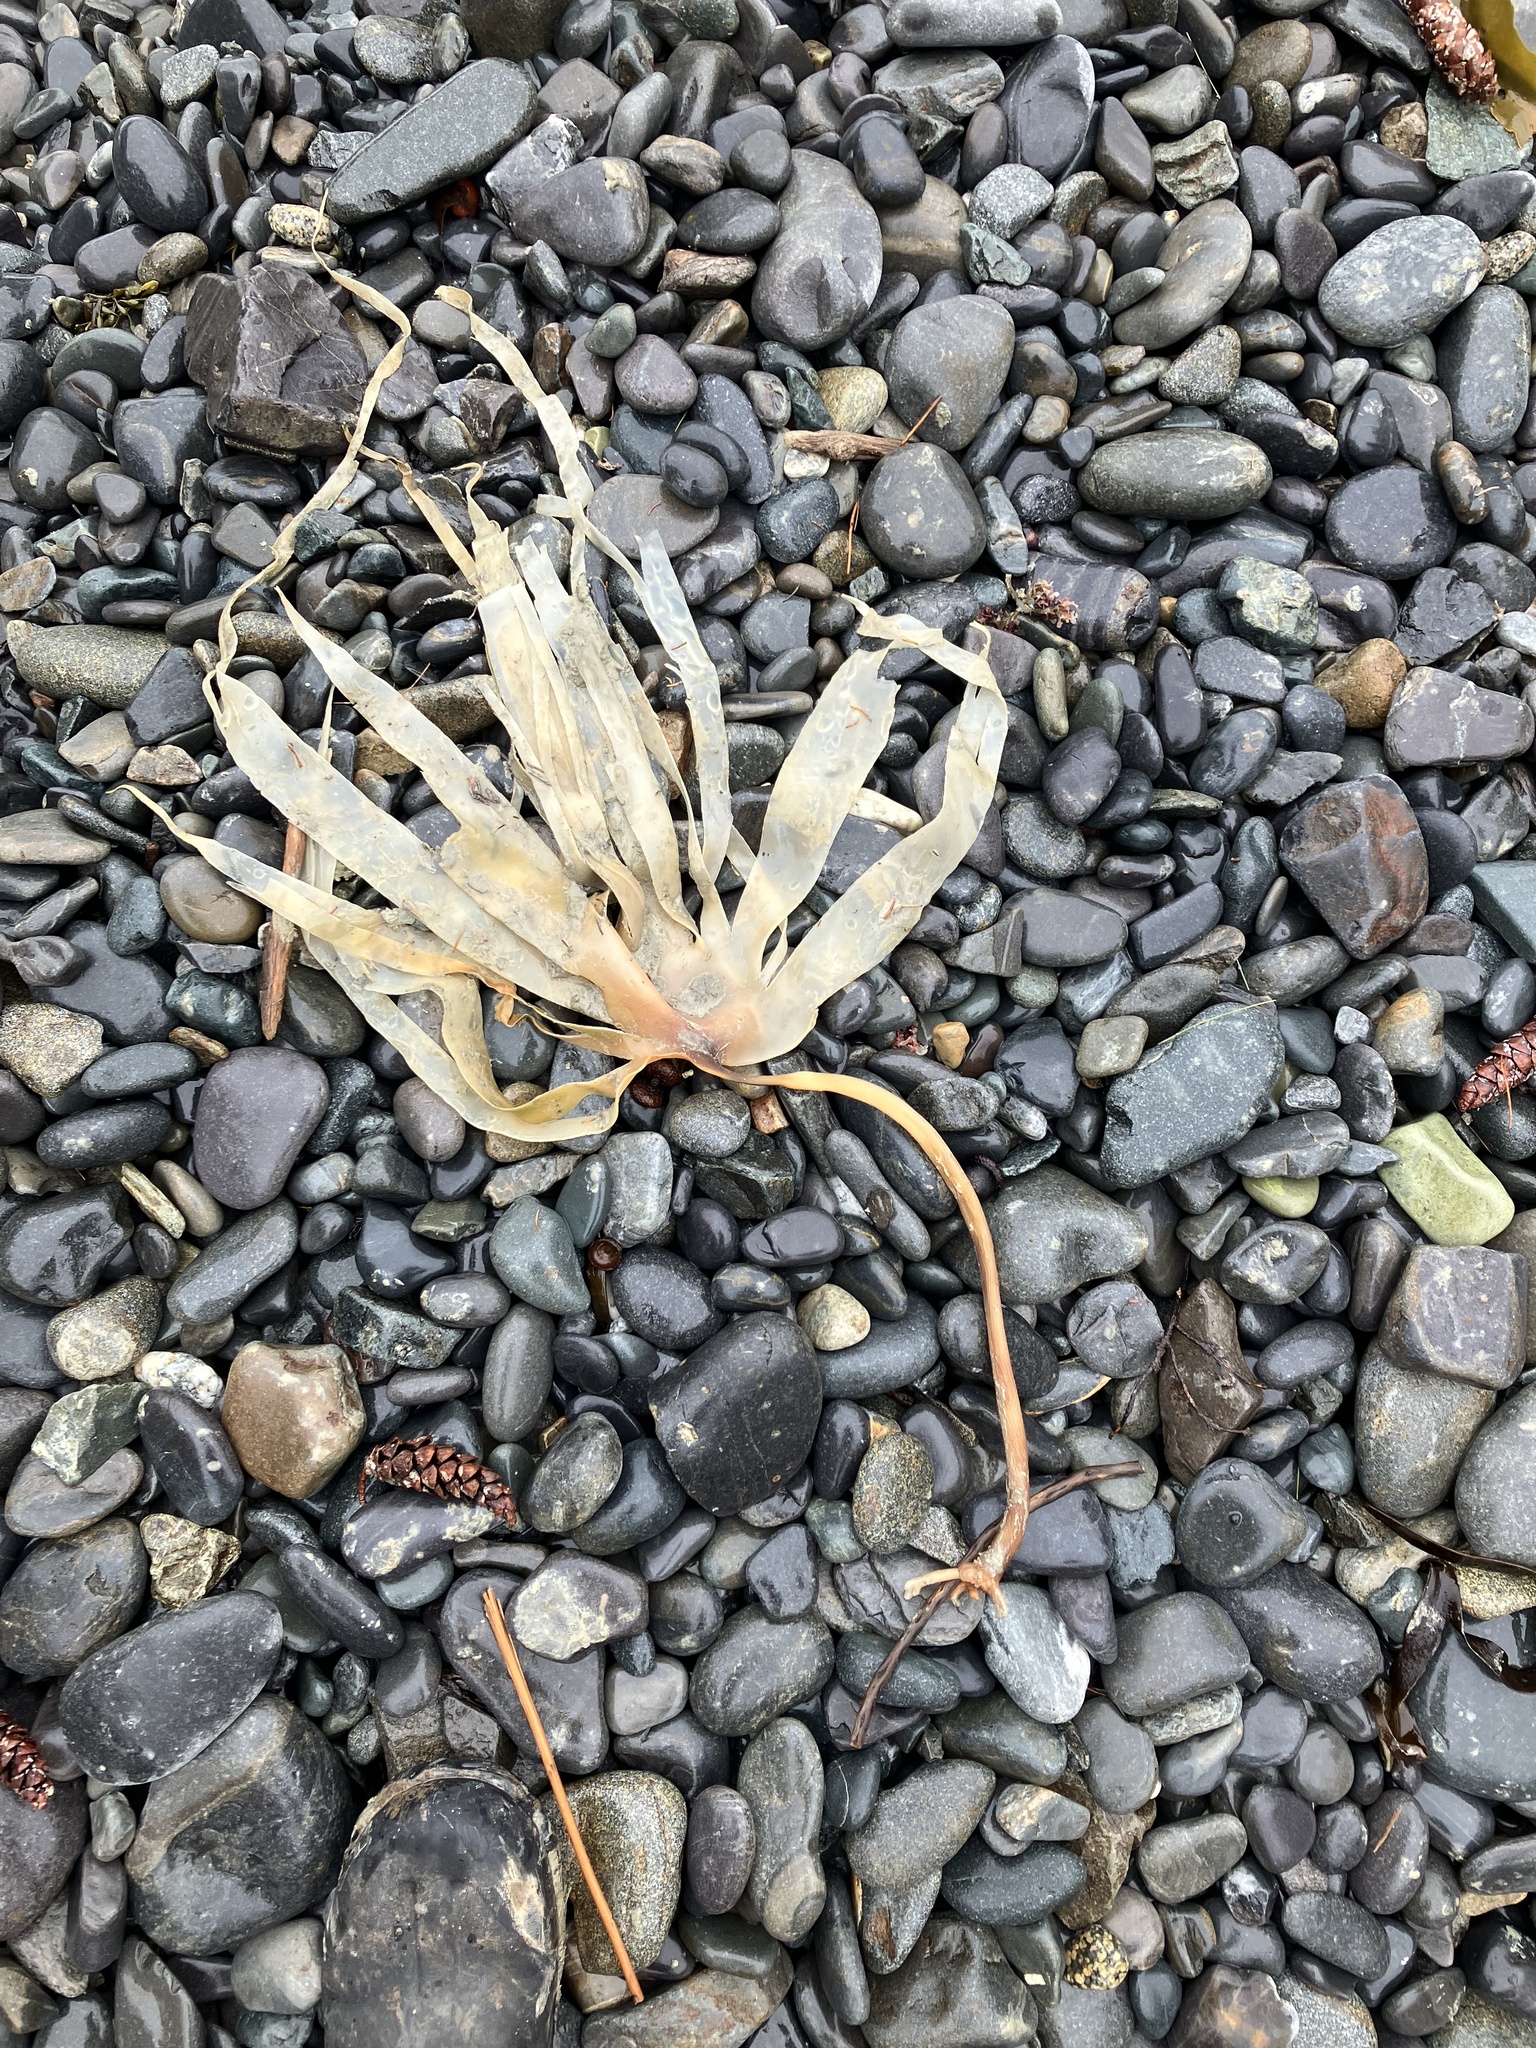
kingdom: Chromista
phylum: Ochrophyta
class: Phaeophyceae
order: Laminariales
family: Laminariaceae
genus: Laminaria
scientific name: Laminaria digitata
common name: Oarweed
